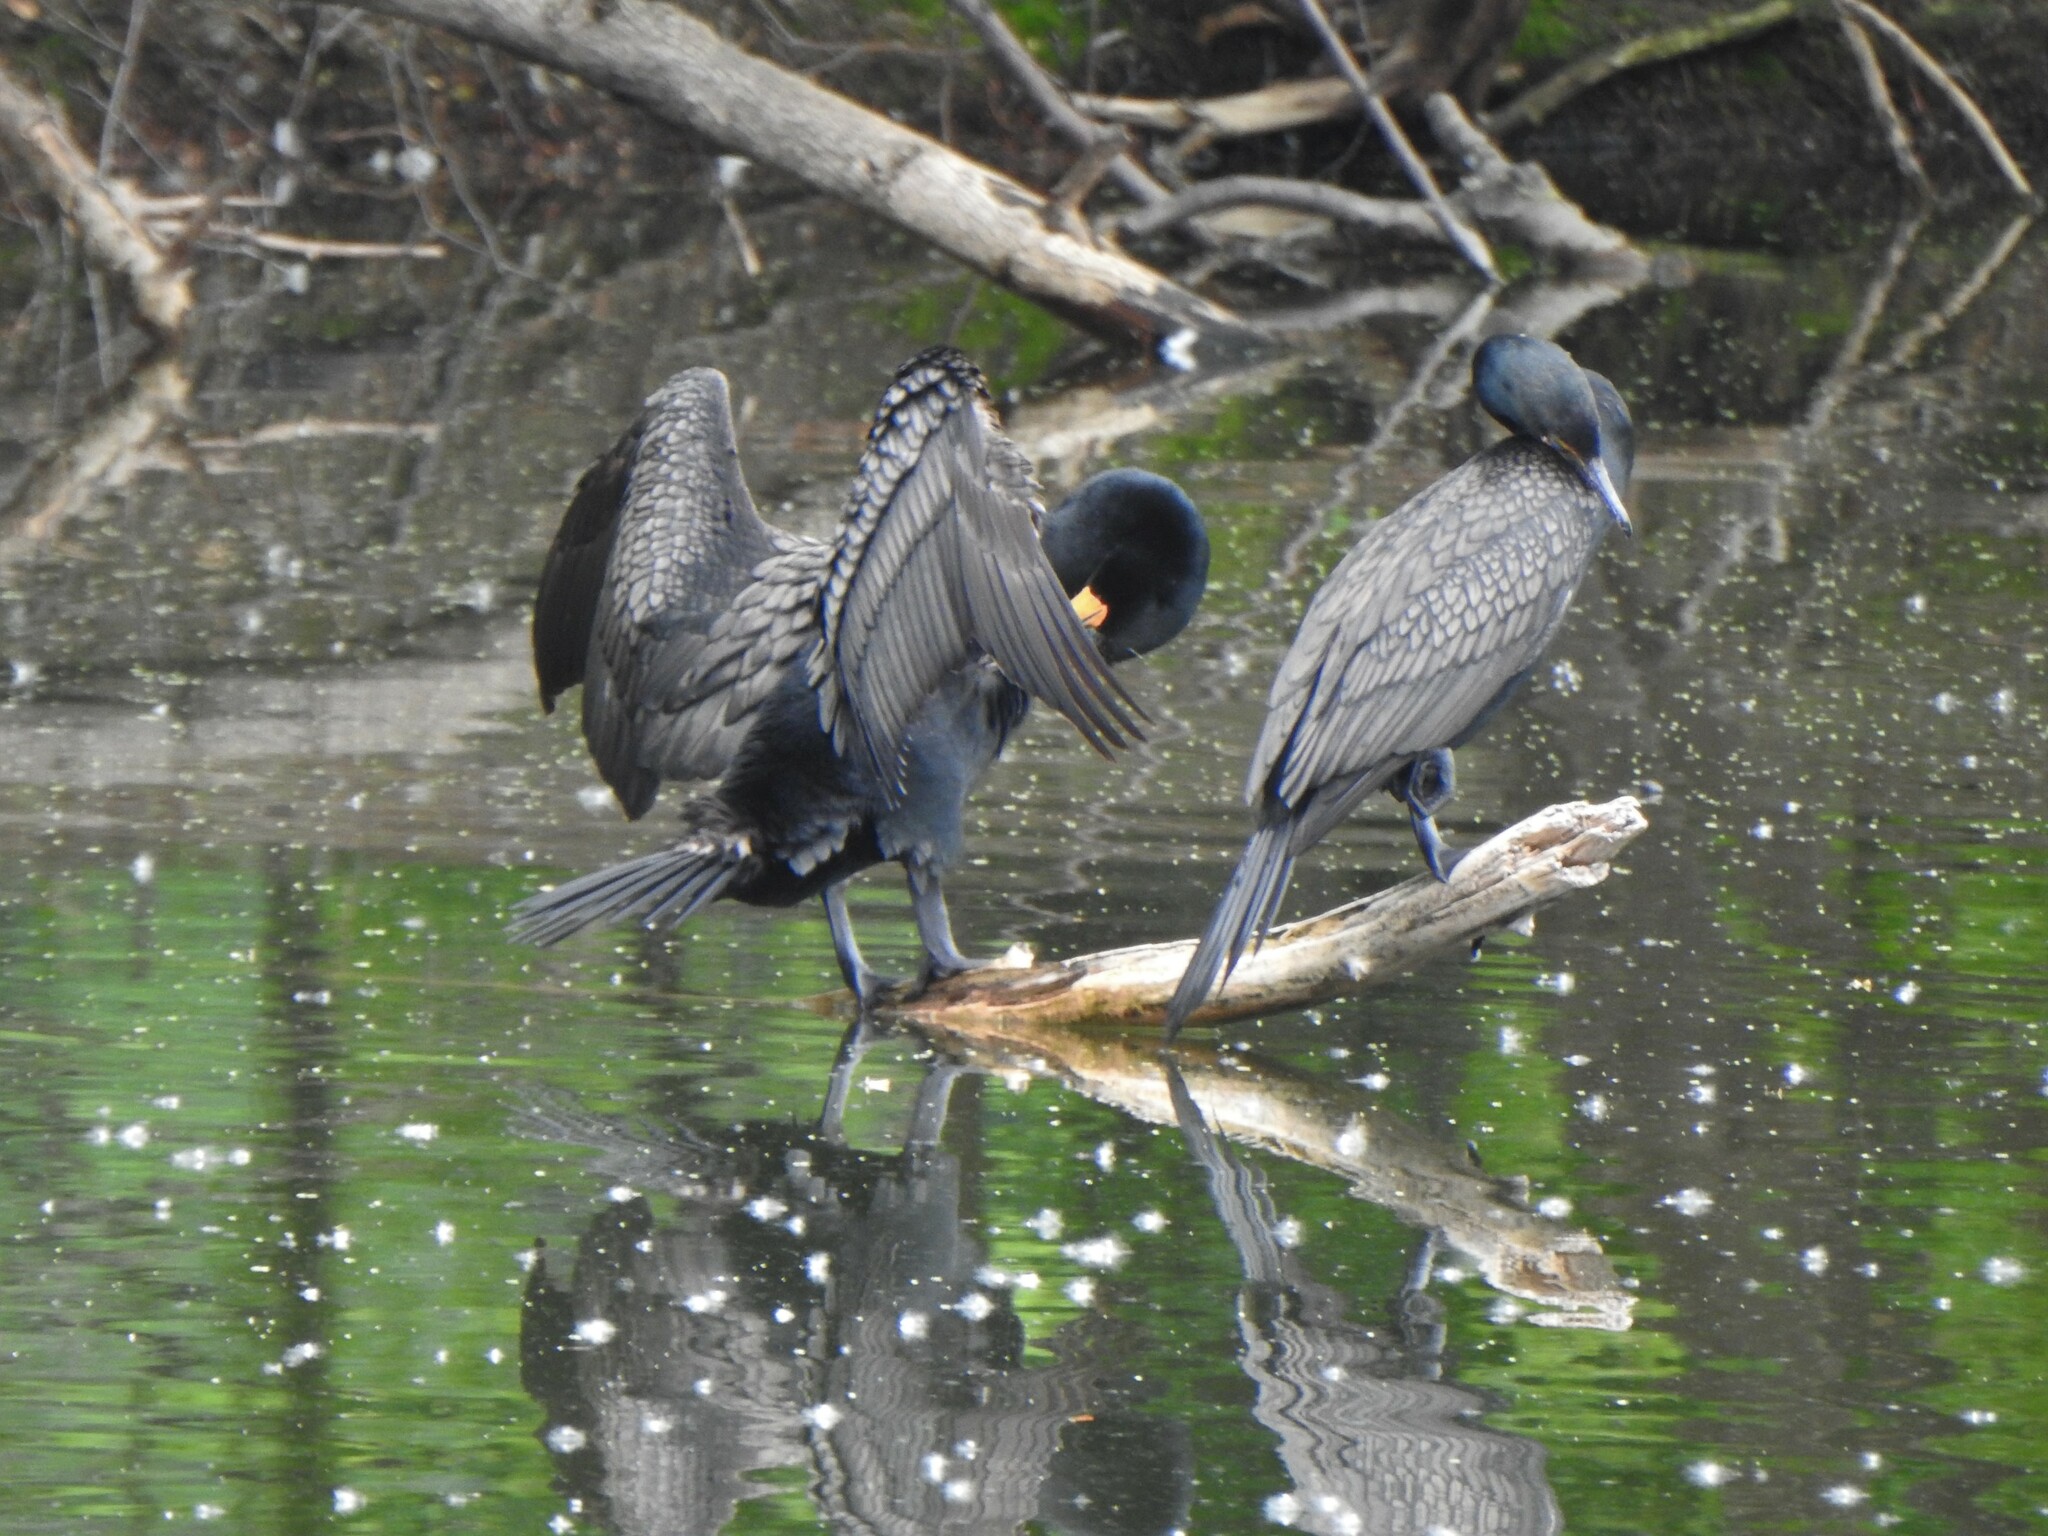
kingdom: Animalia
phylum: Chordata
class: Aves
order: Suliformes
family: Phalacrocoracidae
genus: Phalacrocorax
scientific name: Phalacrocorax auritus
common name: Double-crested cormorant
